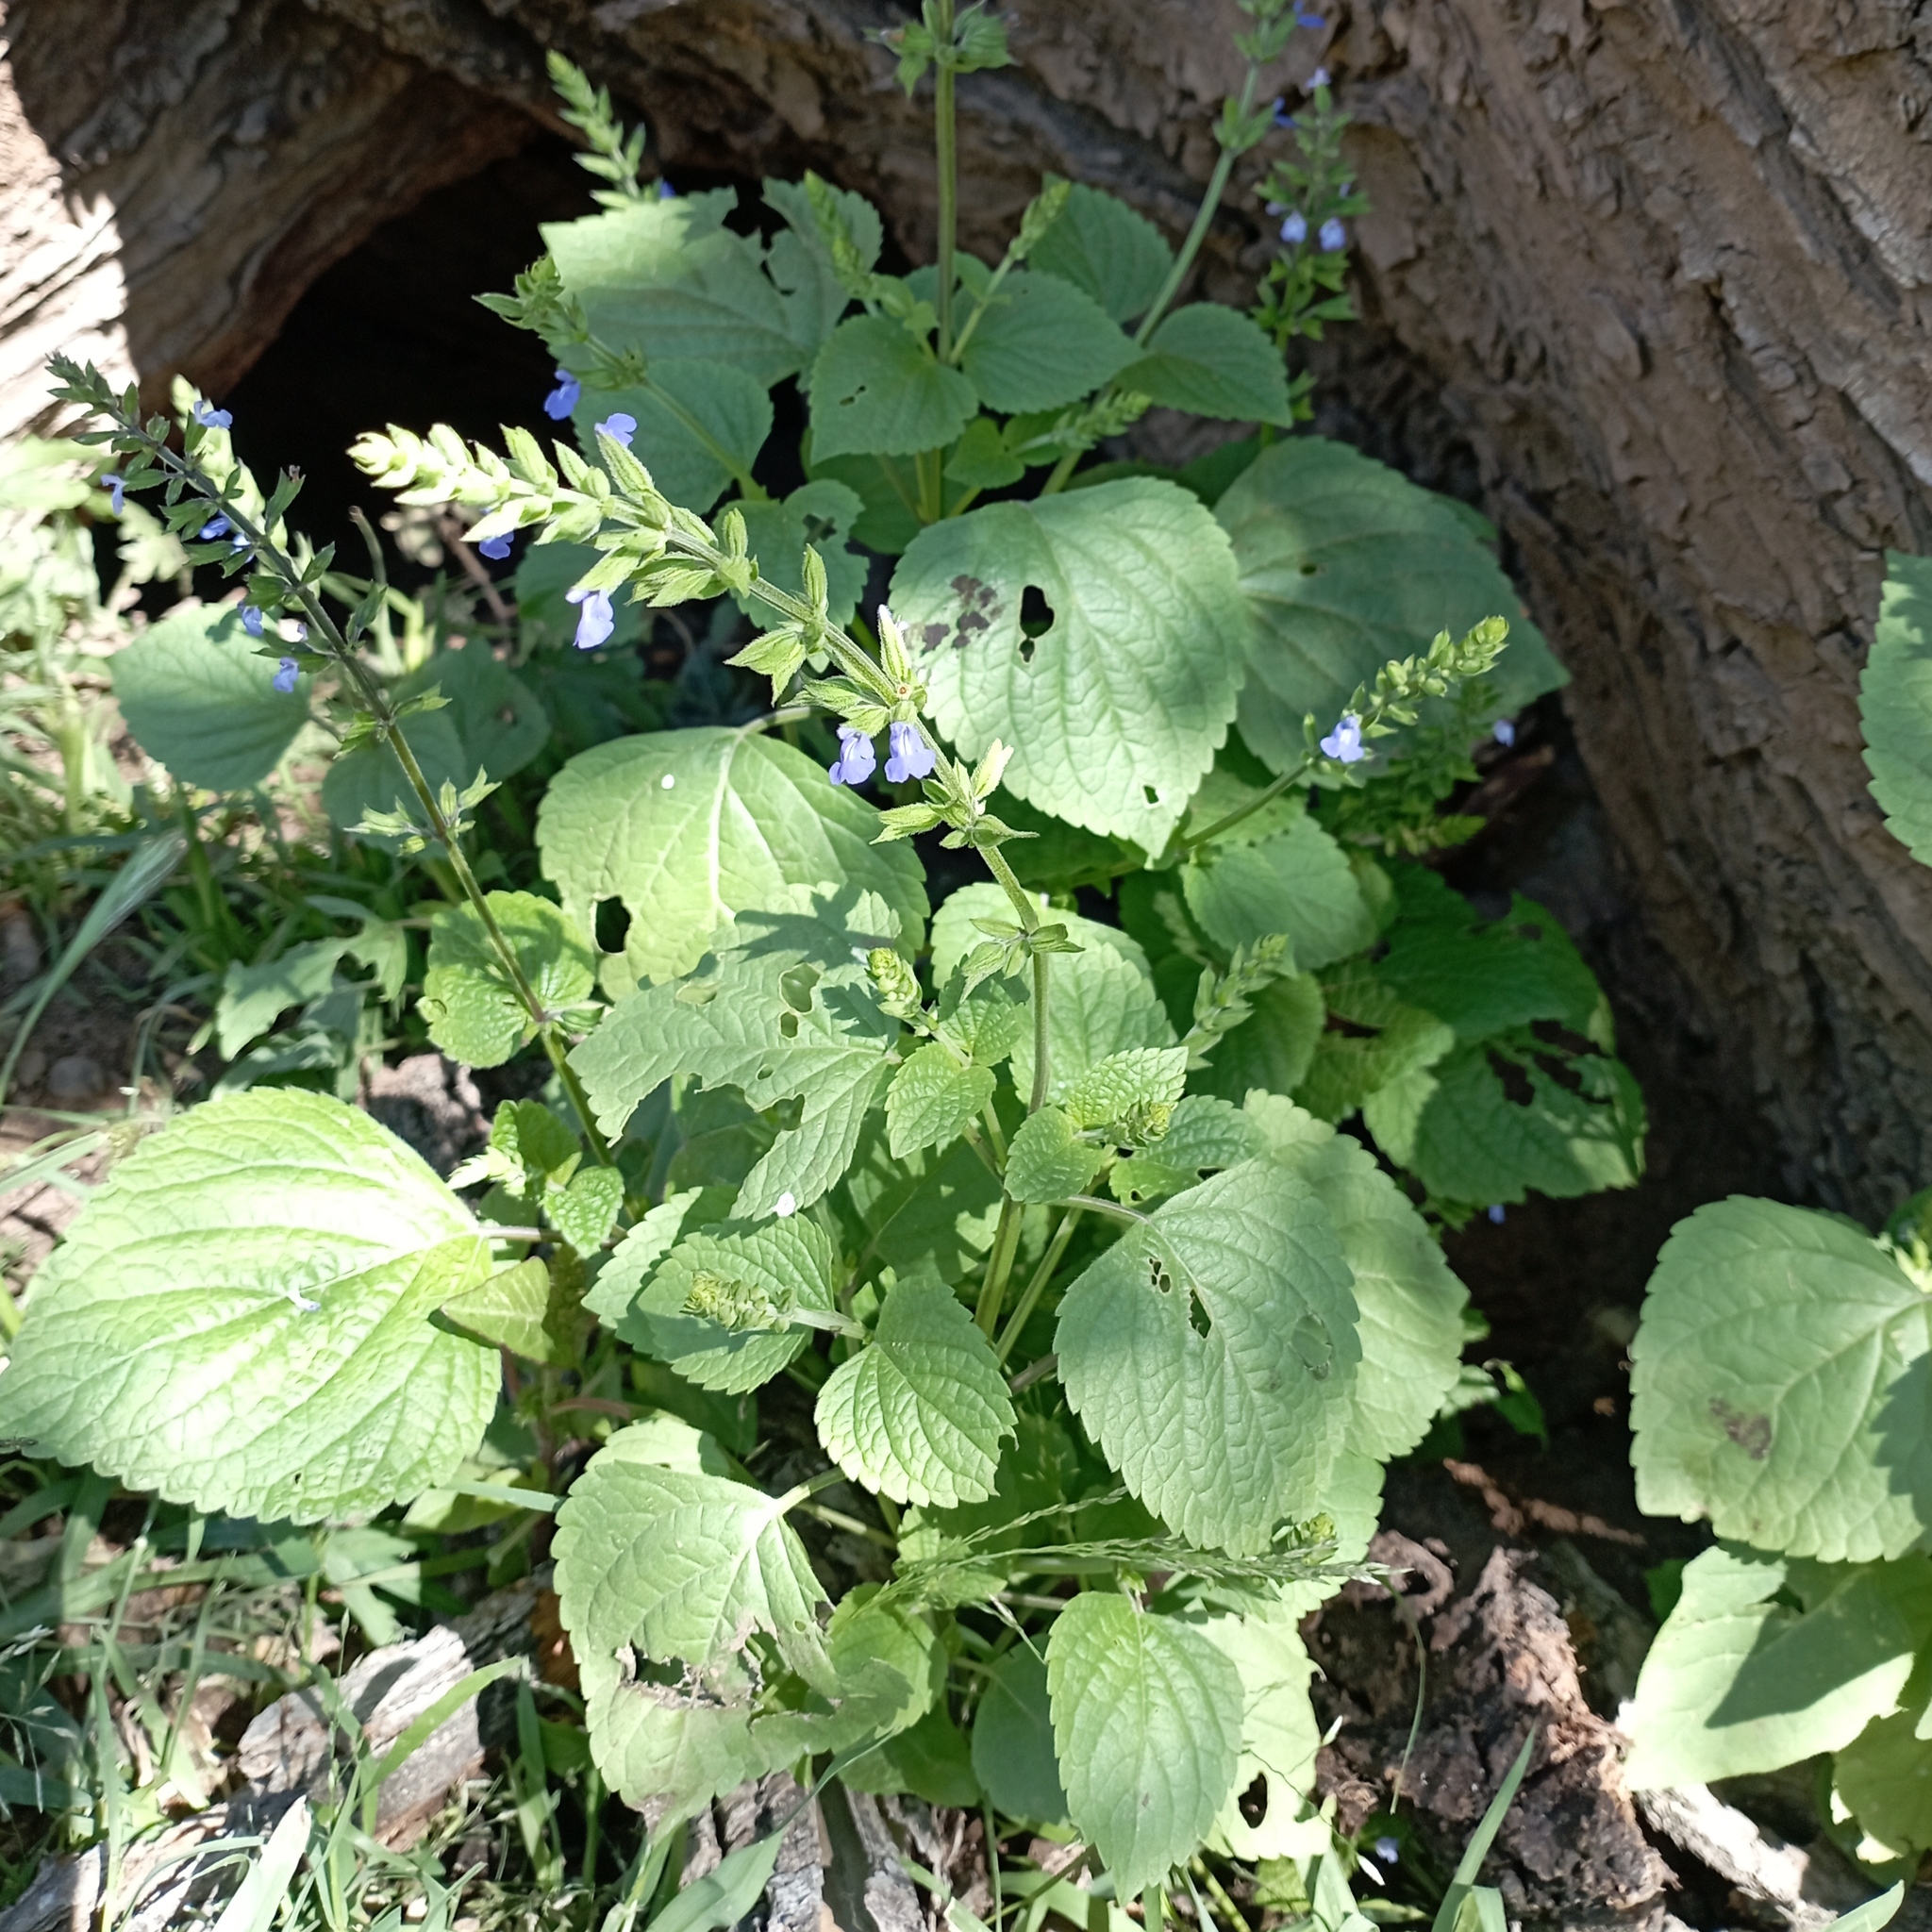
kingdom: Plantae
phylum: Tracheophyta
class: Magnoliopsida
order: Lamiales
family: Lamiaceae
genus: Salvia
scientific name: Salvia tiliifolia
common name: Lindenleaf sage
